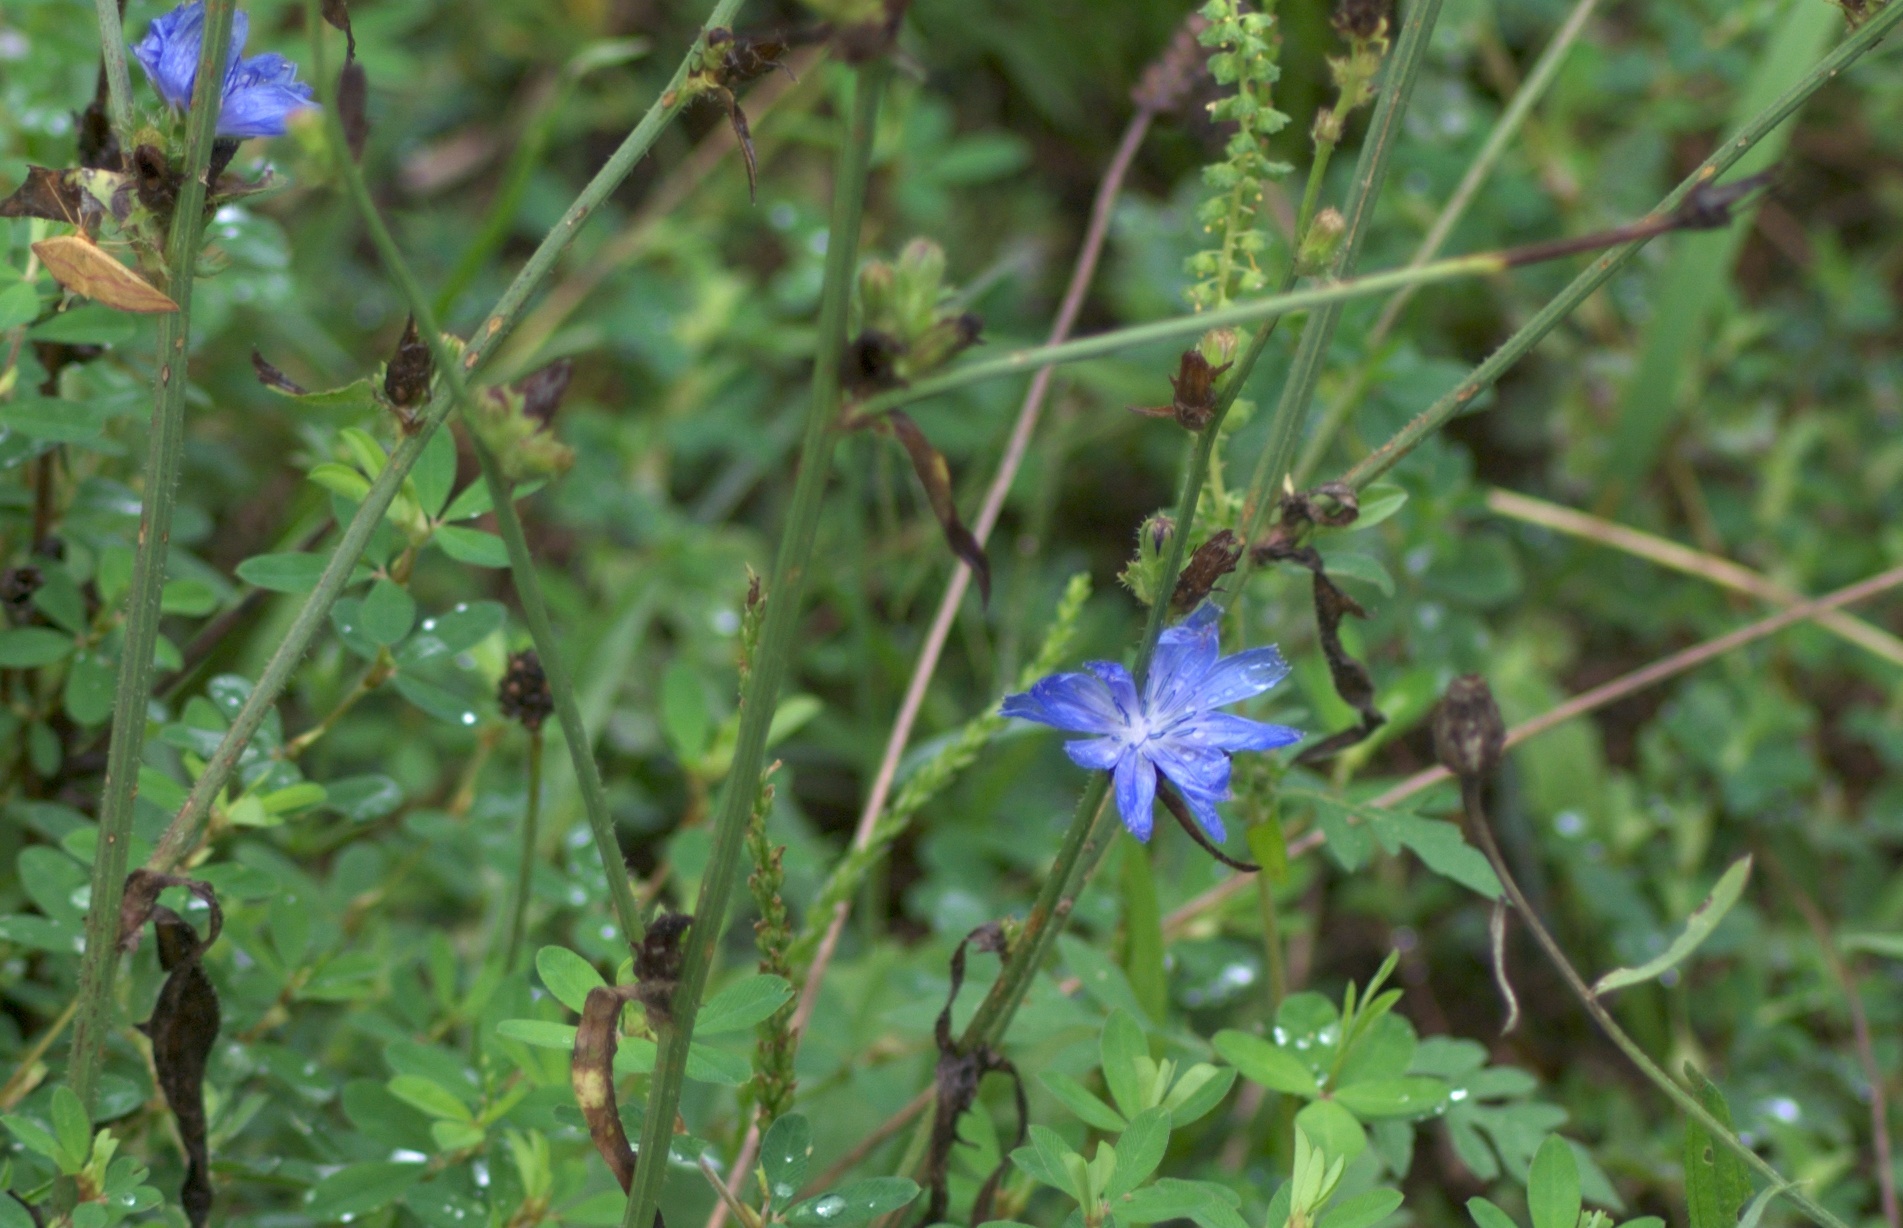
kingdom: Plantae
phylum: Tracheophyta
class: Magnoliopsida
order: Asterales
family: Asteraceae
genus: Cichorium
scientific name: Cichorium intybus
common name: Chicory
